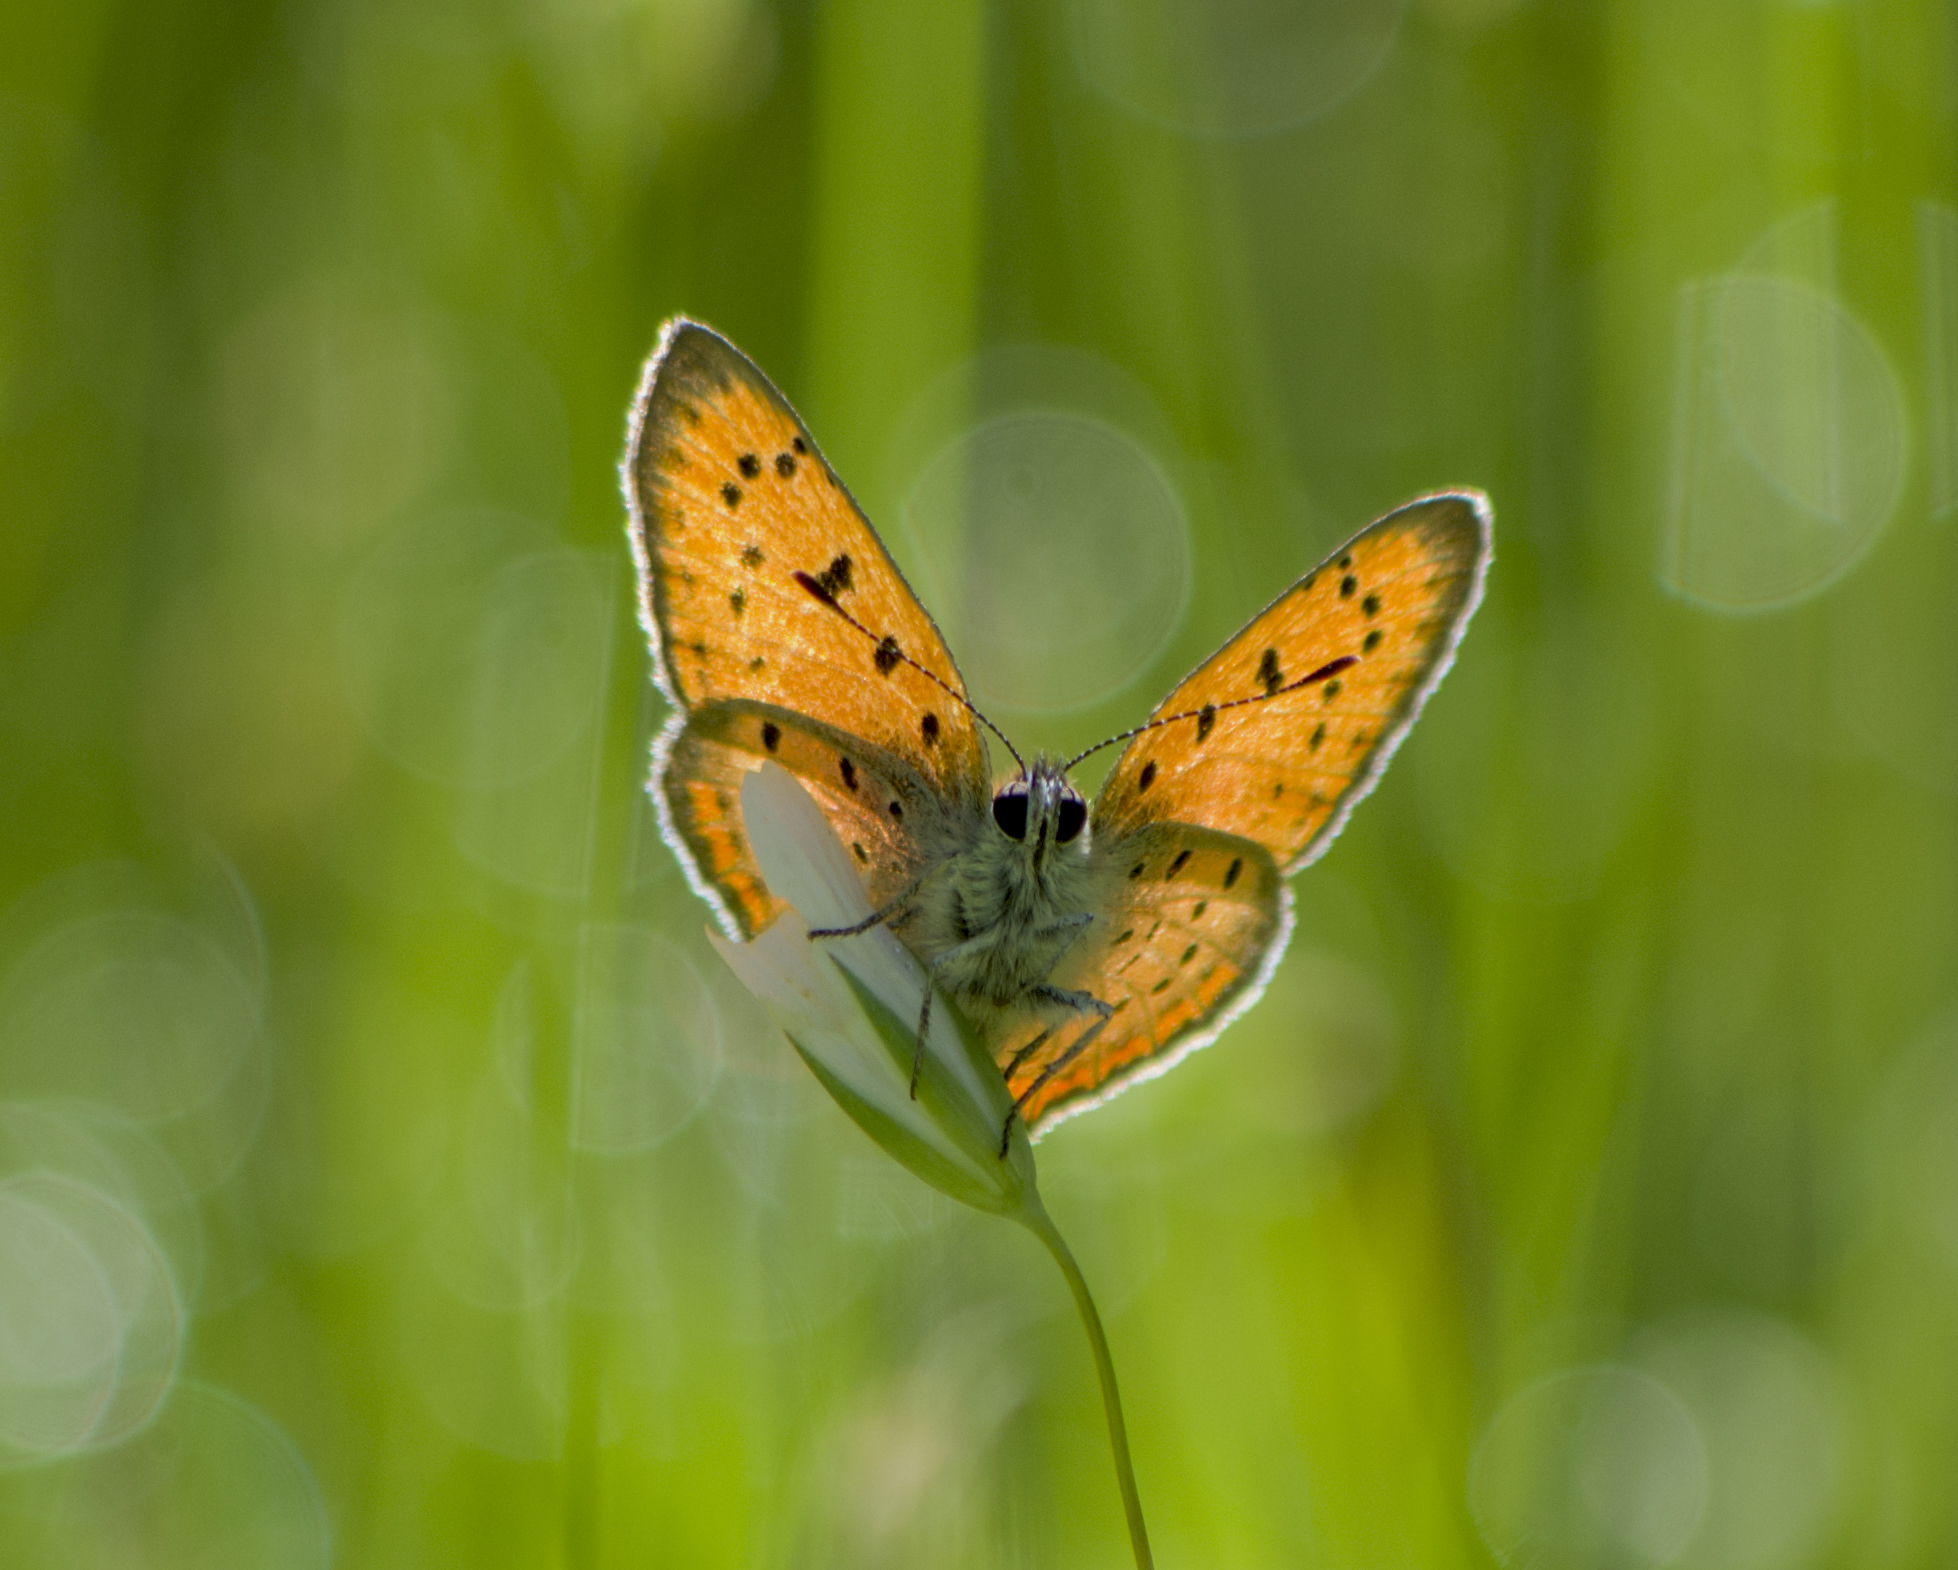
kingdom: Animalia
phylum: Arthropoda
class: Insecta
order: Lepidoptera
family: Lycaenidae
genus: Polyommatus
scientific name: Polyommatus ottomanus
